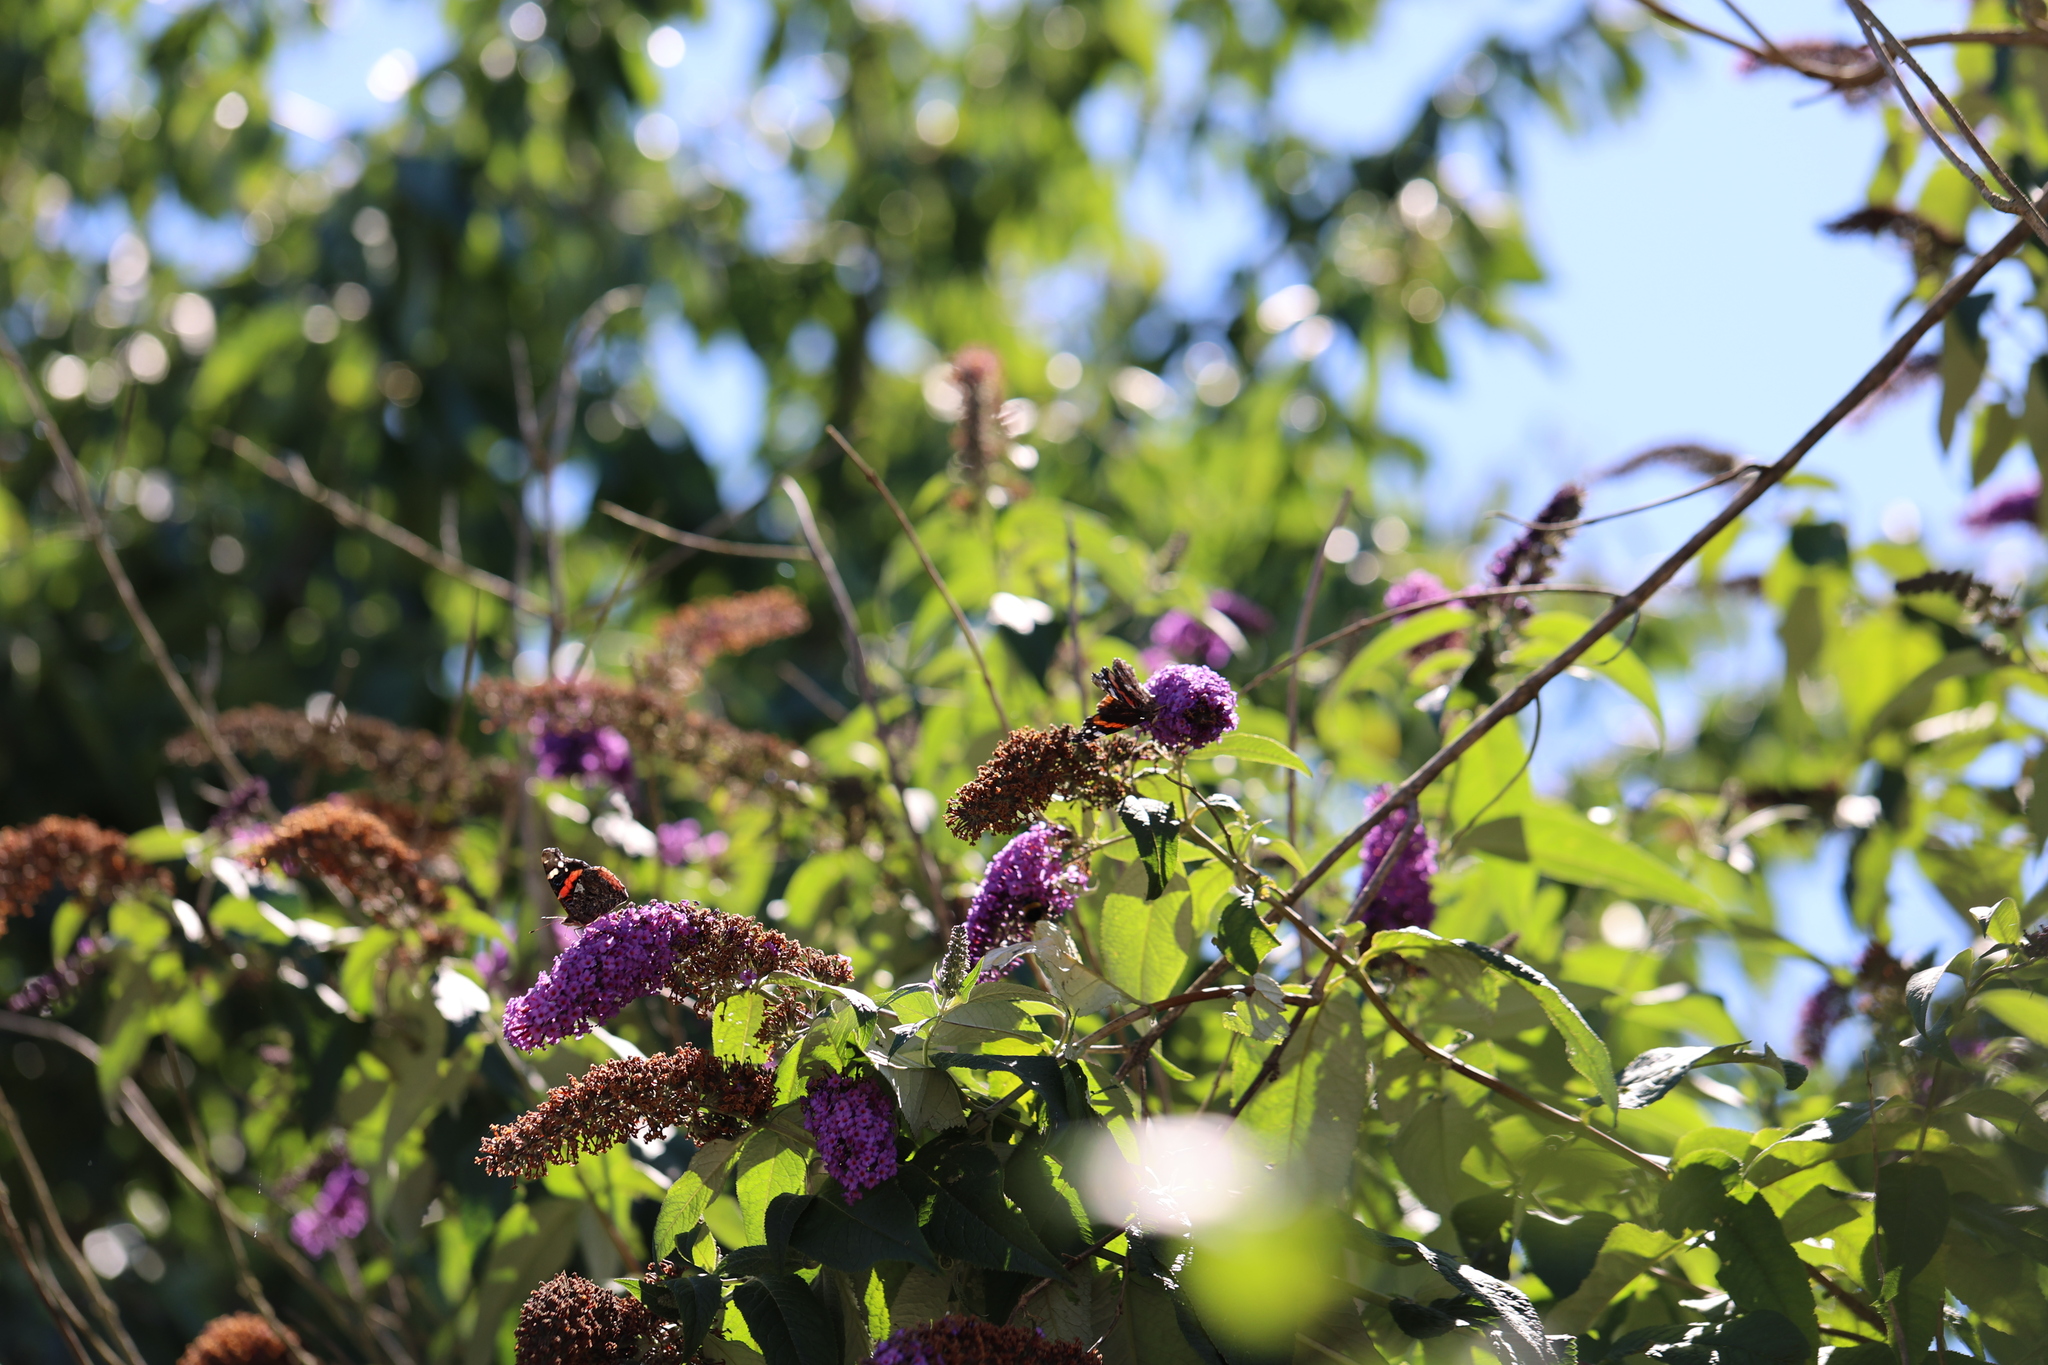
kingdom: Animalia
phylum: Arthropoda
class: Insecta
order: Lepidoptera
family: Nymphalidae
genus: Vanessa
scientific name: Vanessa atalanta
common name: Red admiral
